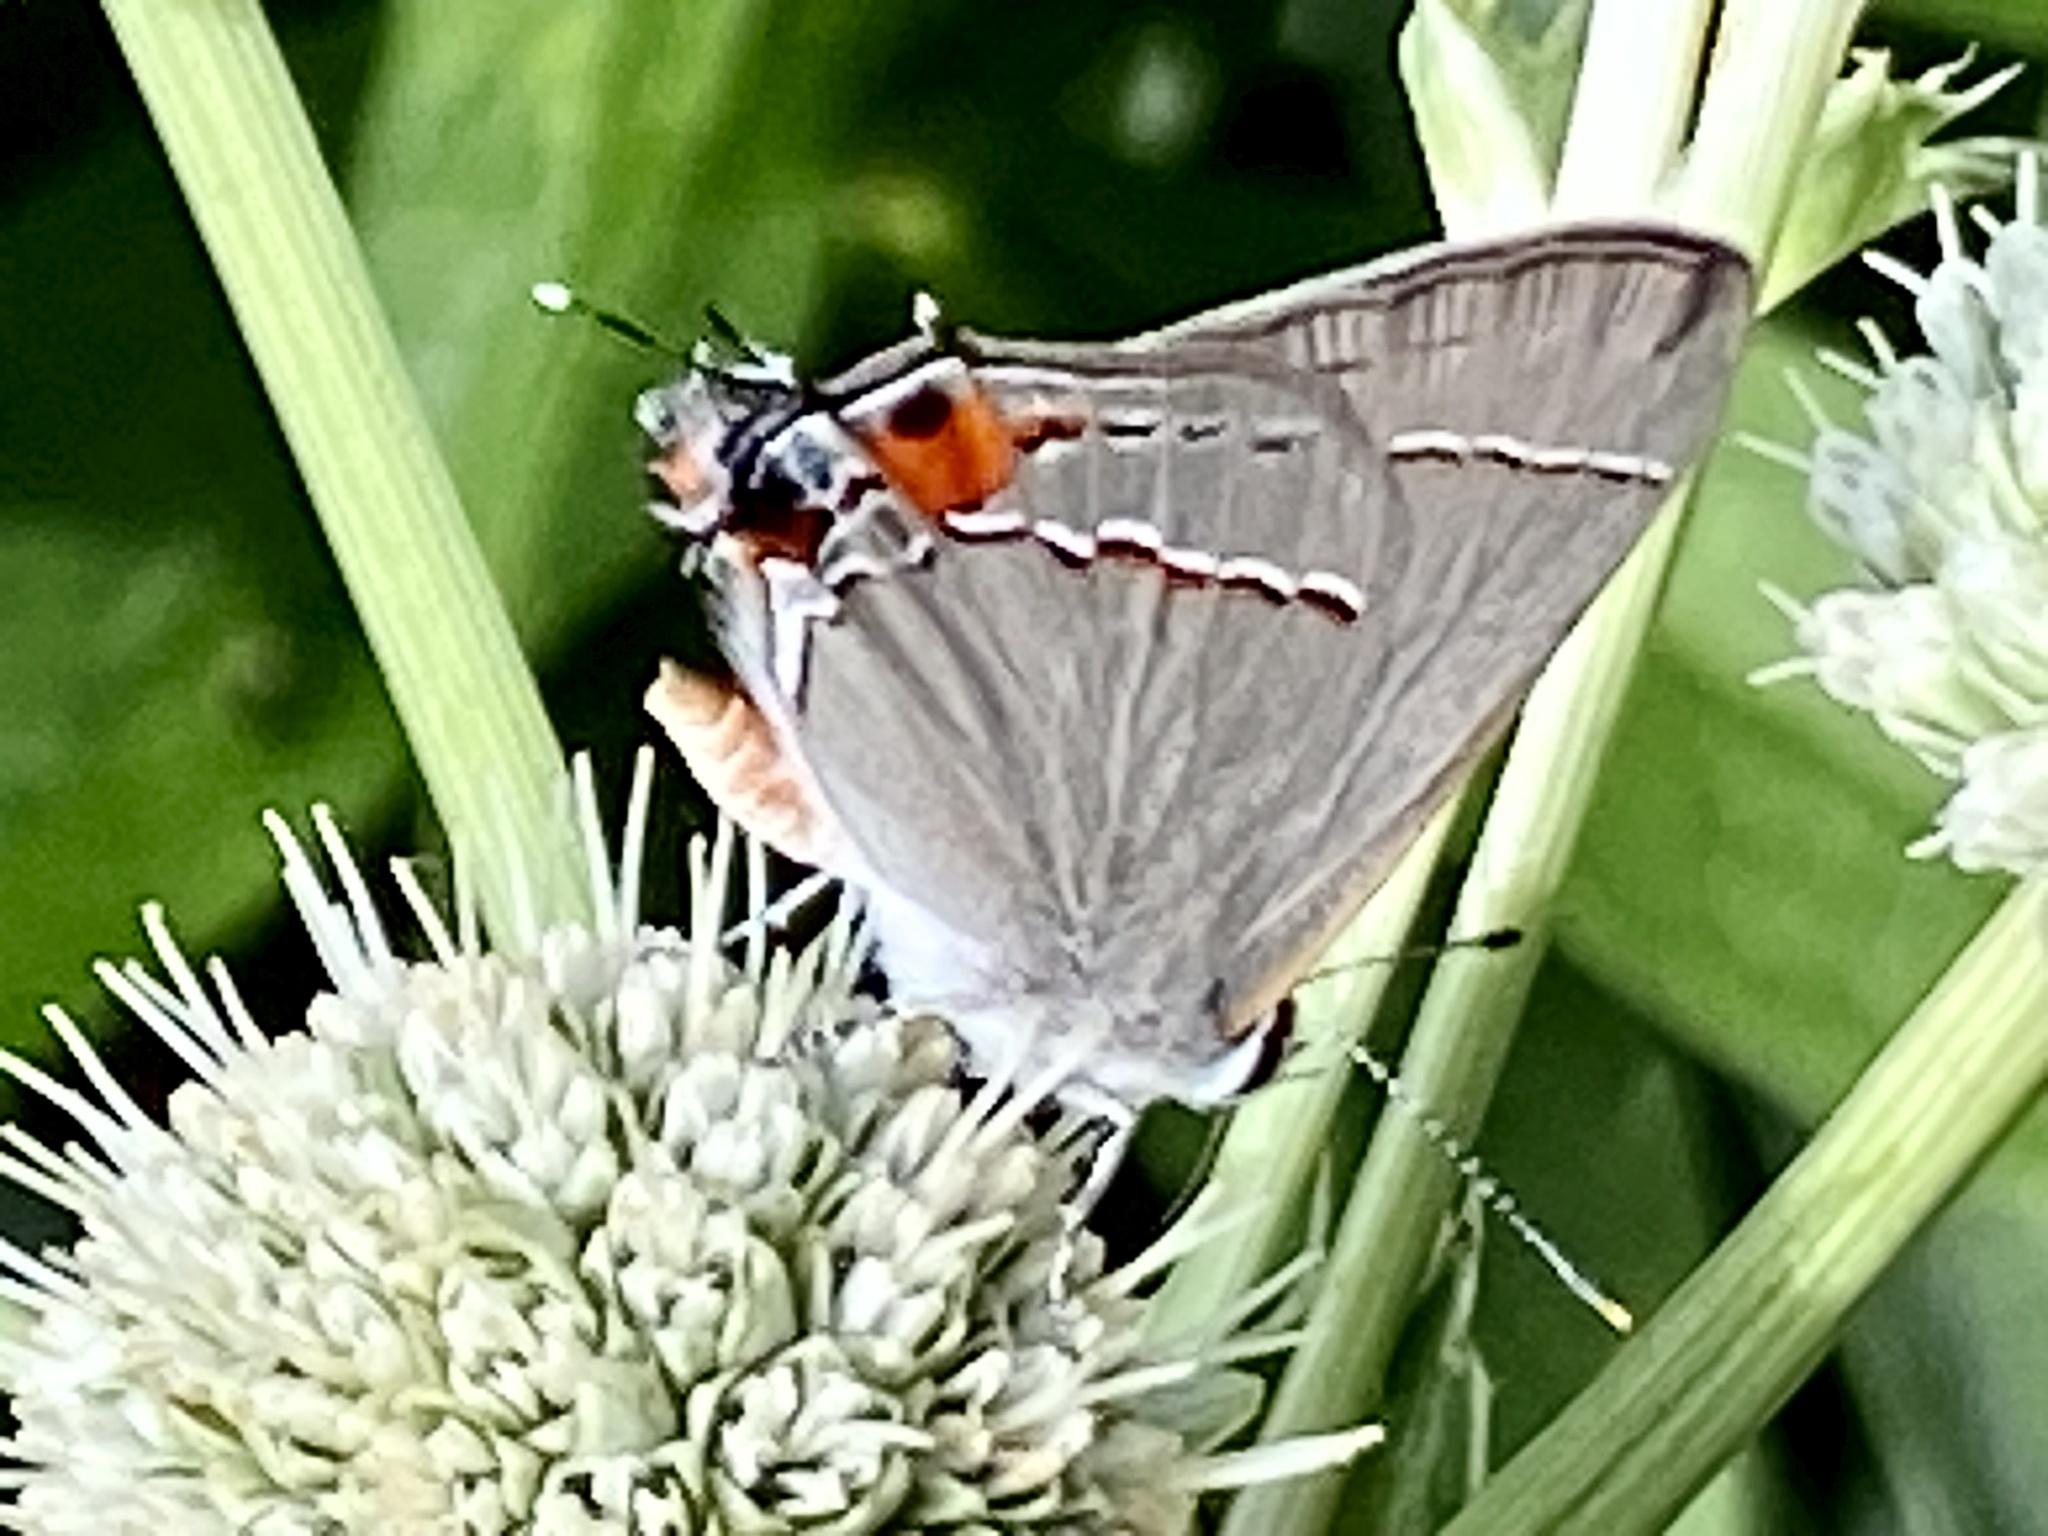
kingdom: Animalia
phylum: Arthropoda
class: Insecta
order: Lepidoptera
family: Lycaenidae
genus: Strymon
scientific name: Strymon melinus
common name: Gray hairstreak
